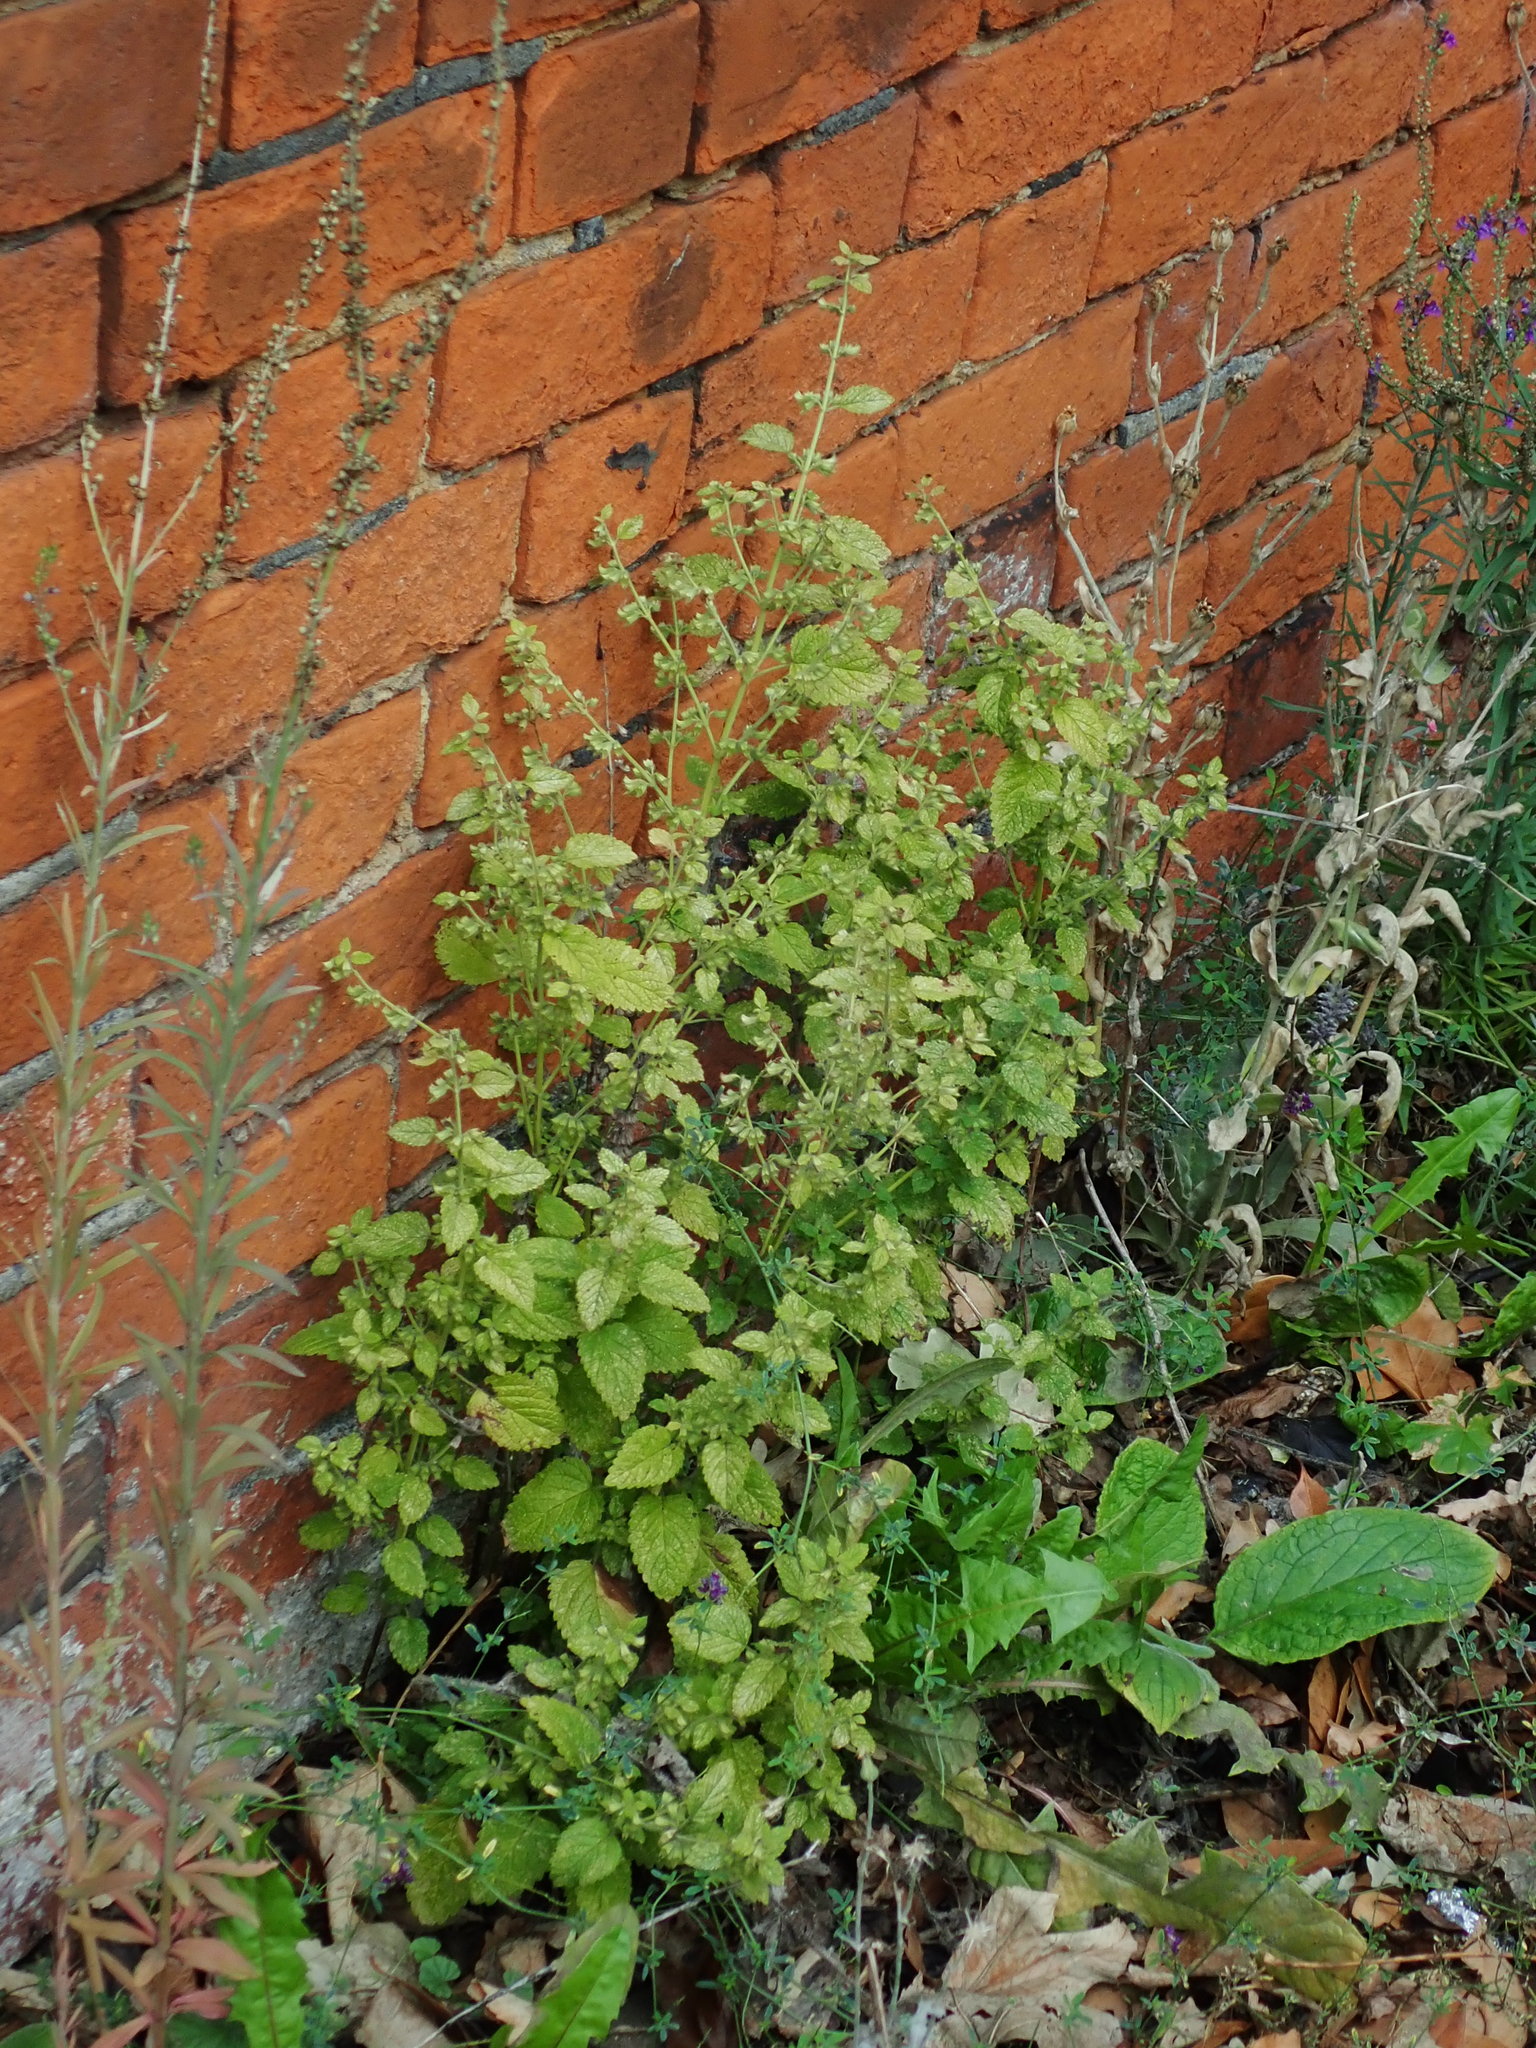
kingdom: Plantae
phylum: Tracheophyta
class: Magnoliopsida
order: Lamiales
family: Lamiaceae
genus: Melissa
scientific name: Melissa officinalis
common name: Balm
